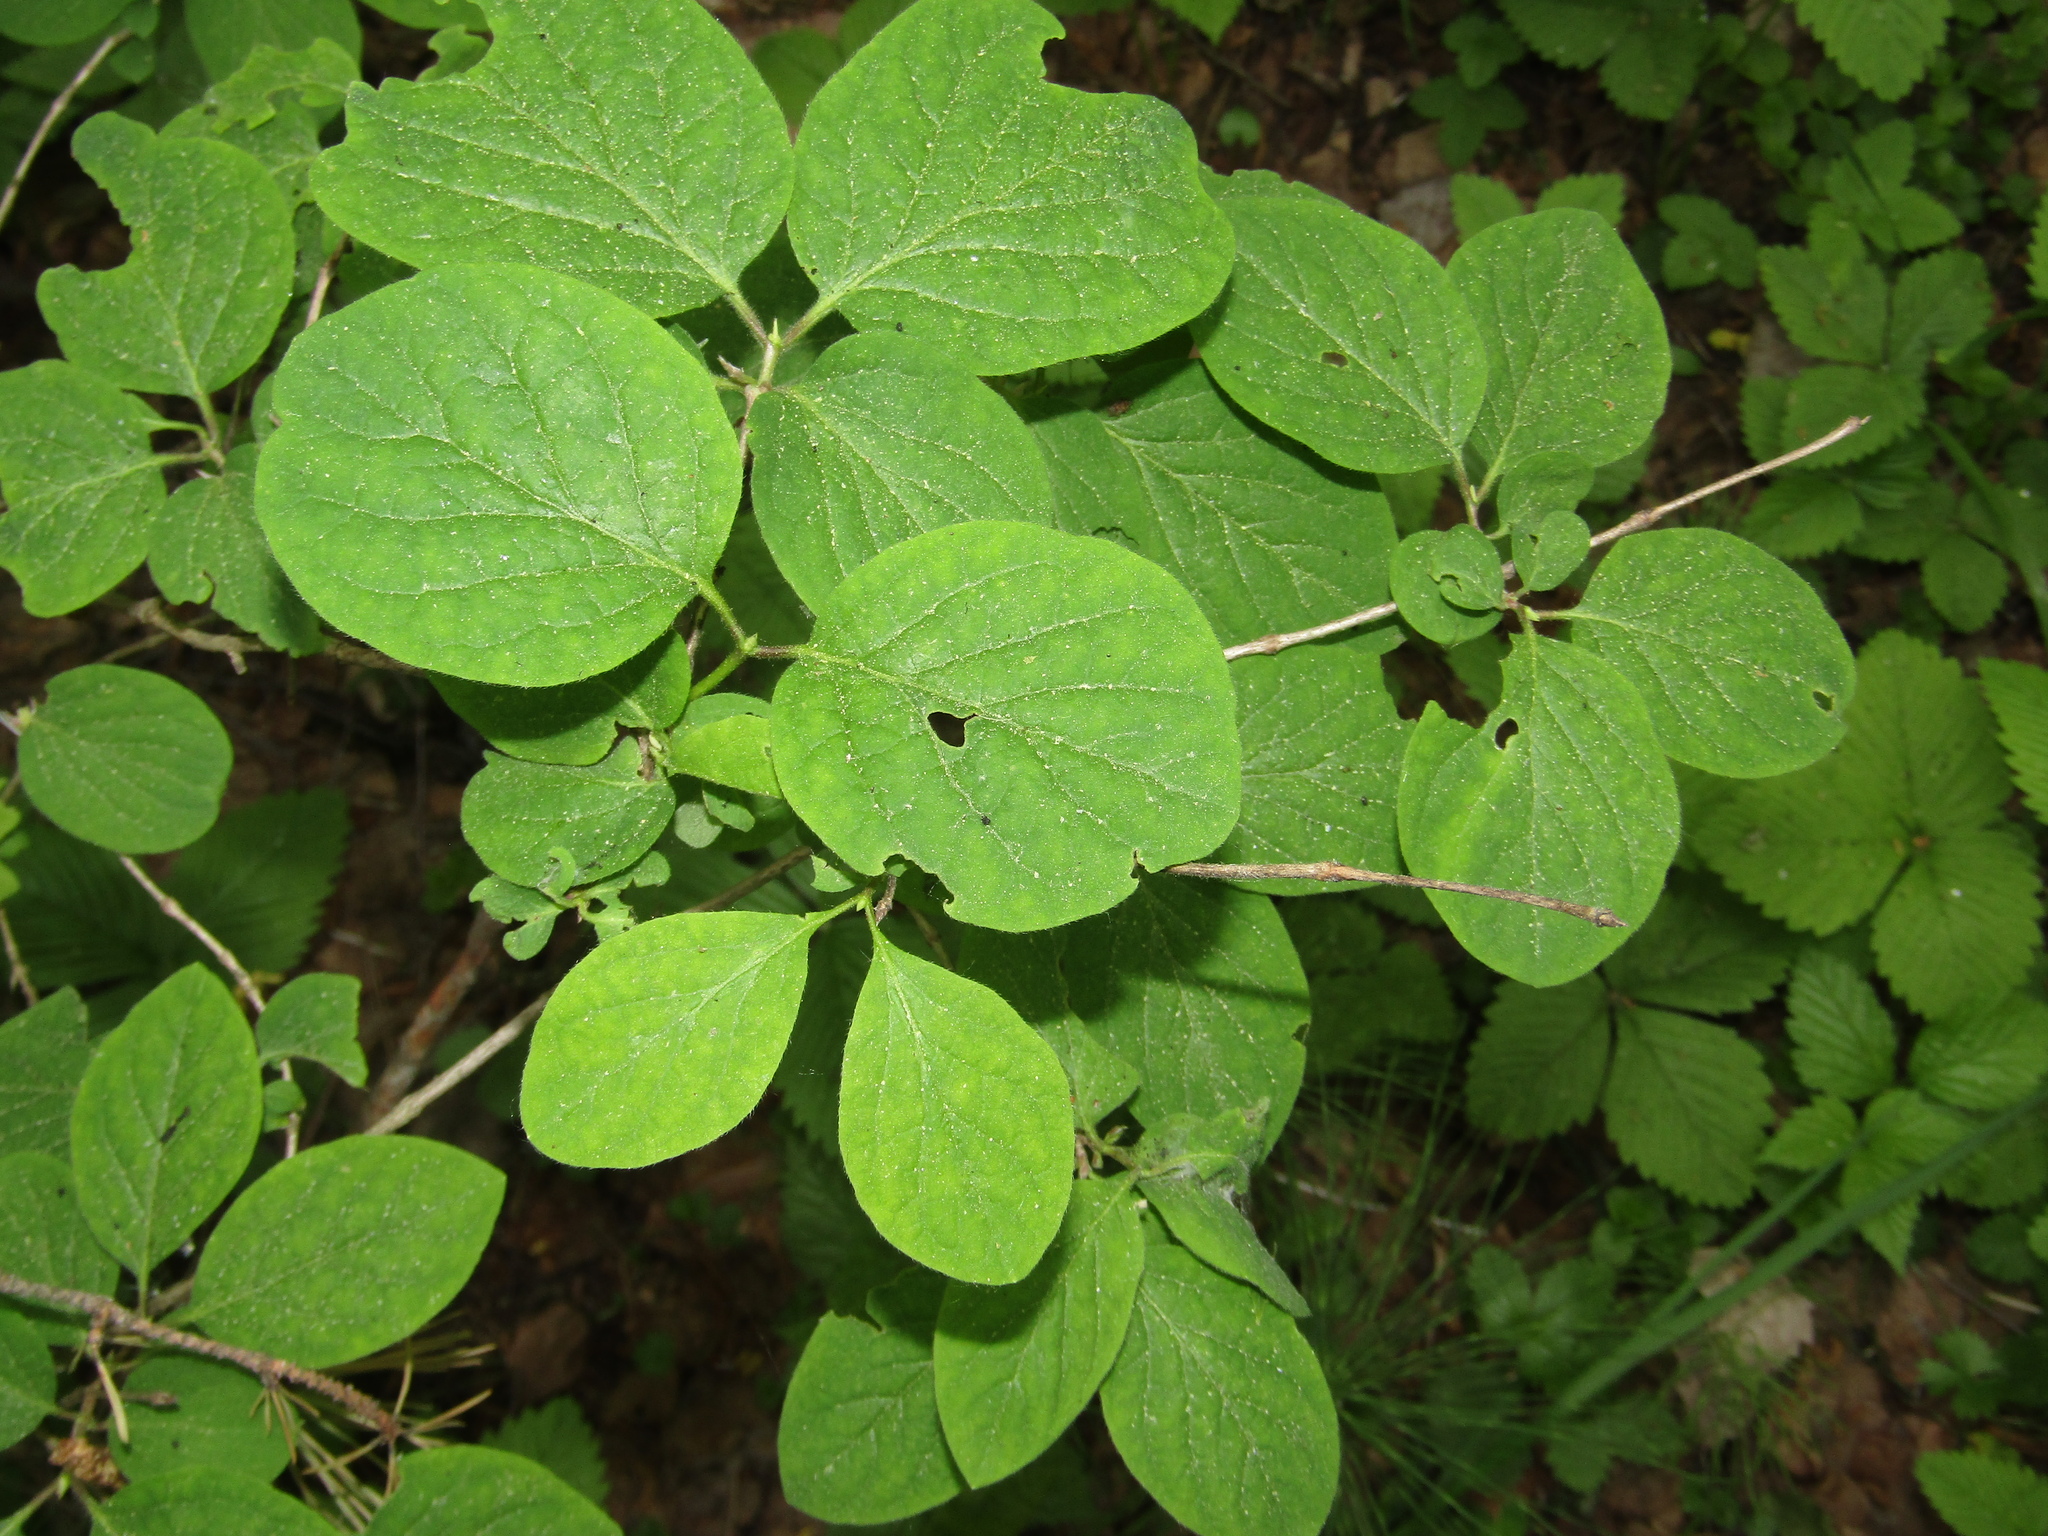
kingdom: Plantae
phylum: Tracheophyta
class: Magnoliopsida
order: Dipsacales
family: Caprifoliaceae
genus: Lonicera
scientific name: Lonicera xylosteum
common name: Fly honeysuckle
